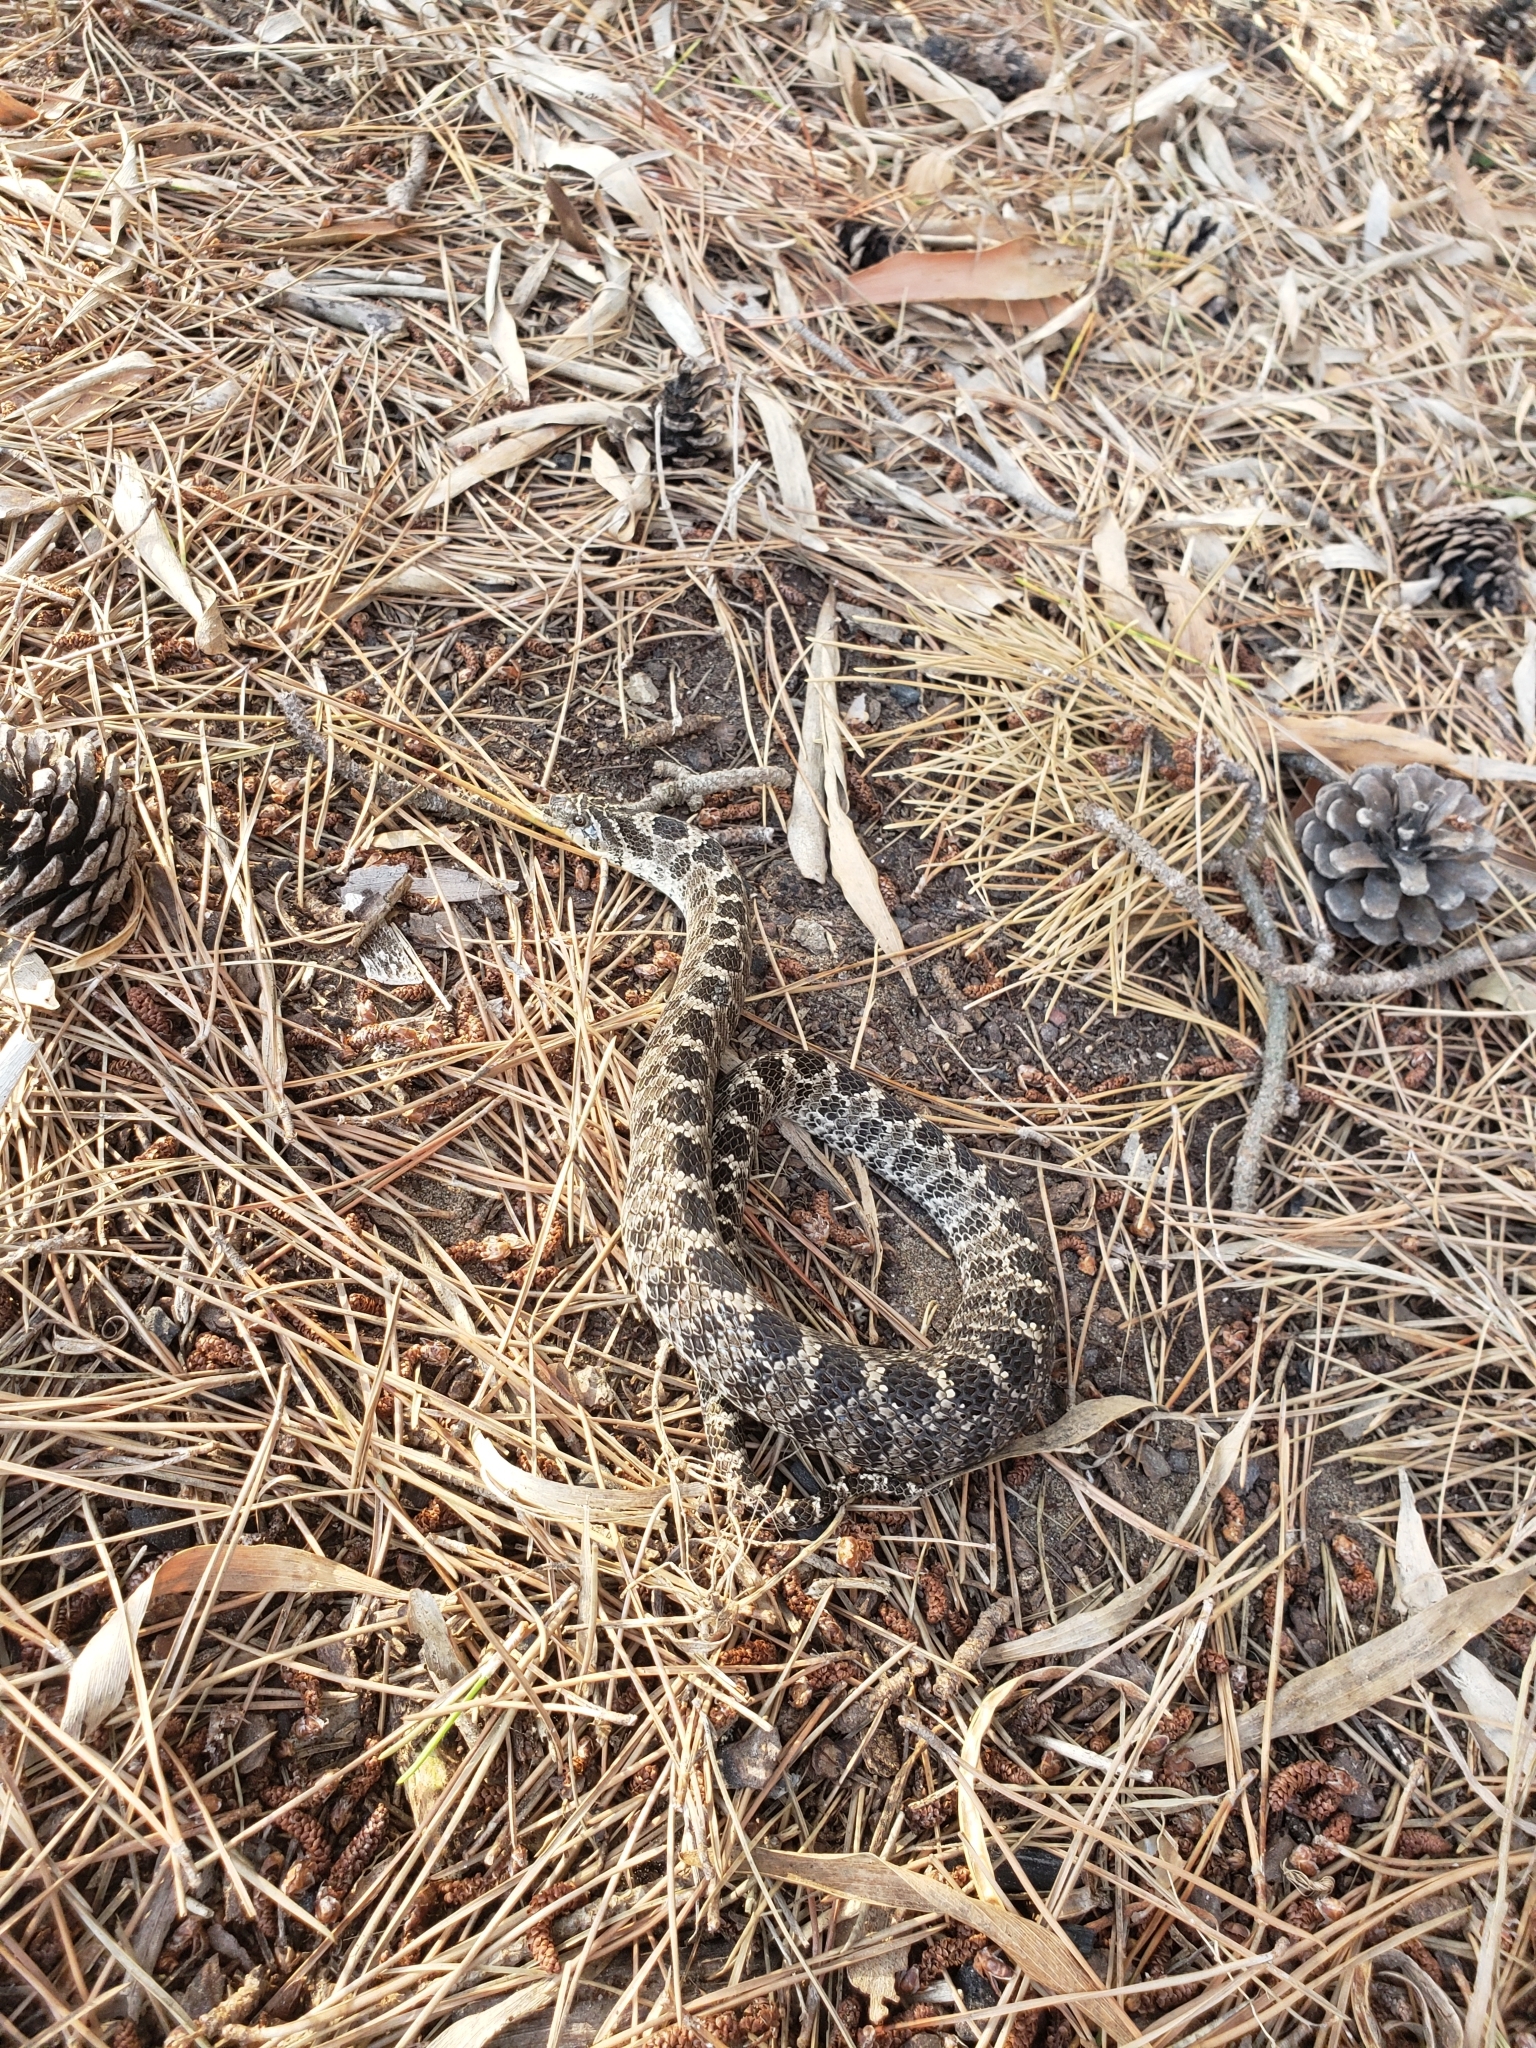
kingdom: Animalia
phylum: Chordata
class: Squamata
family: Colubridae
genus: Xenodon
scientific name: Xenodon dorbignyi
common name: South american hognose snake
